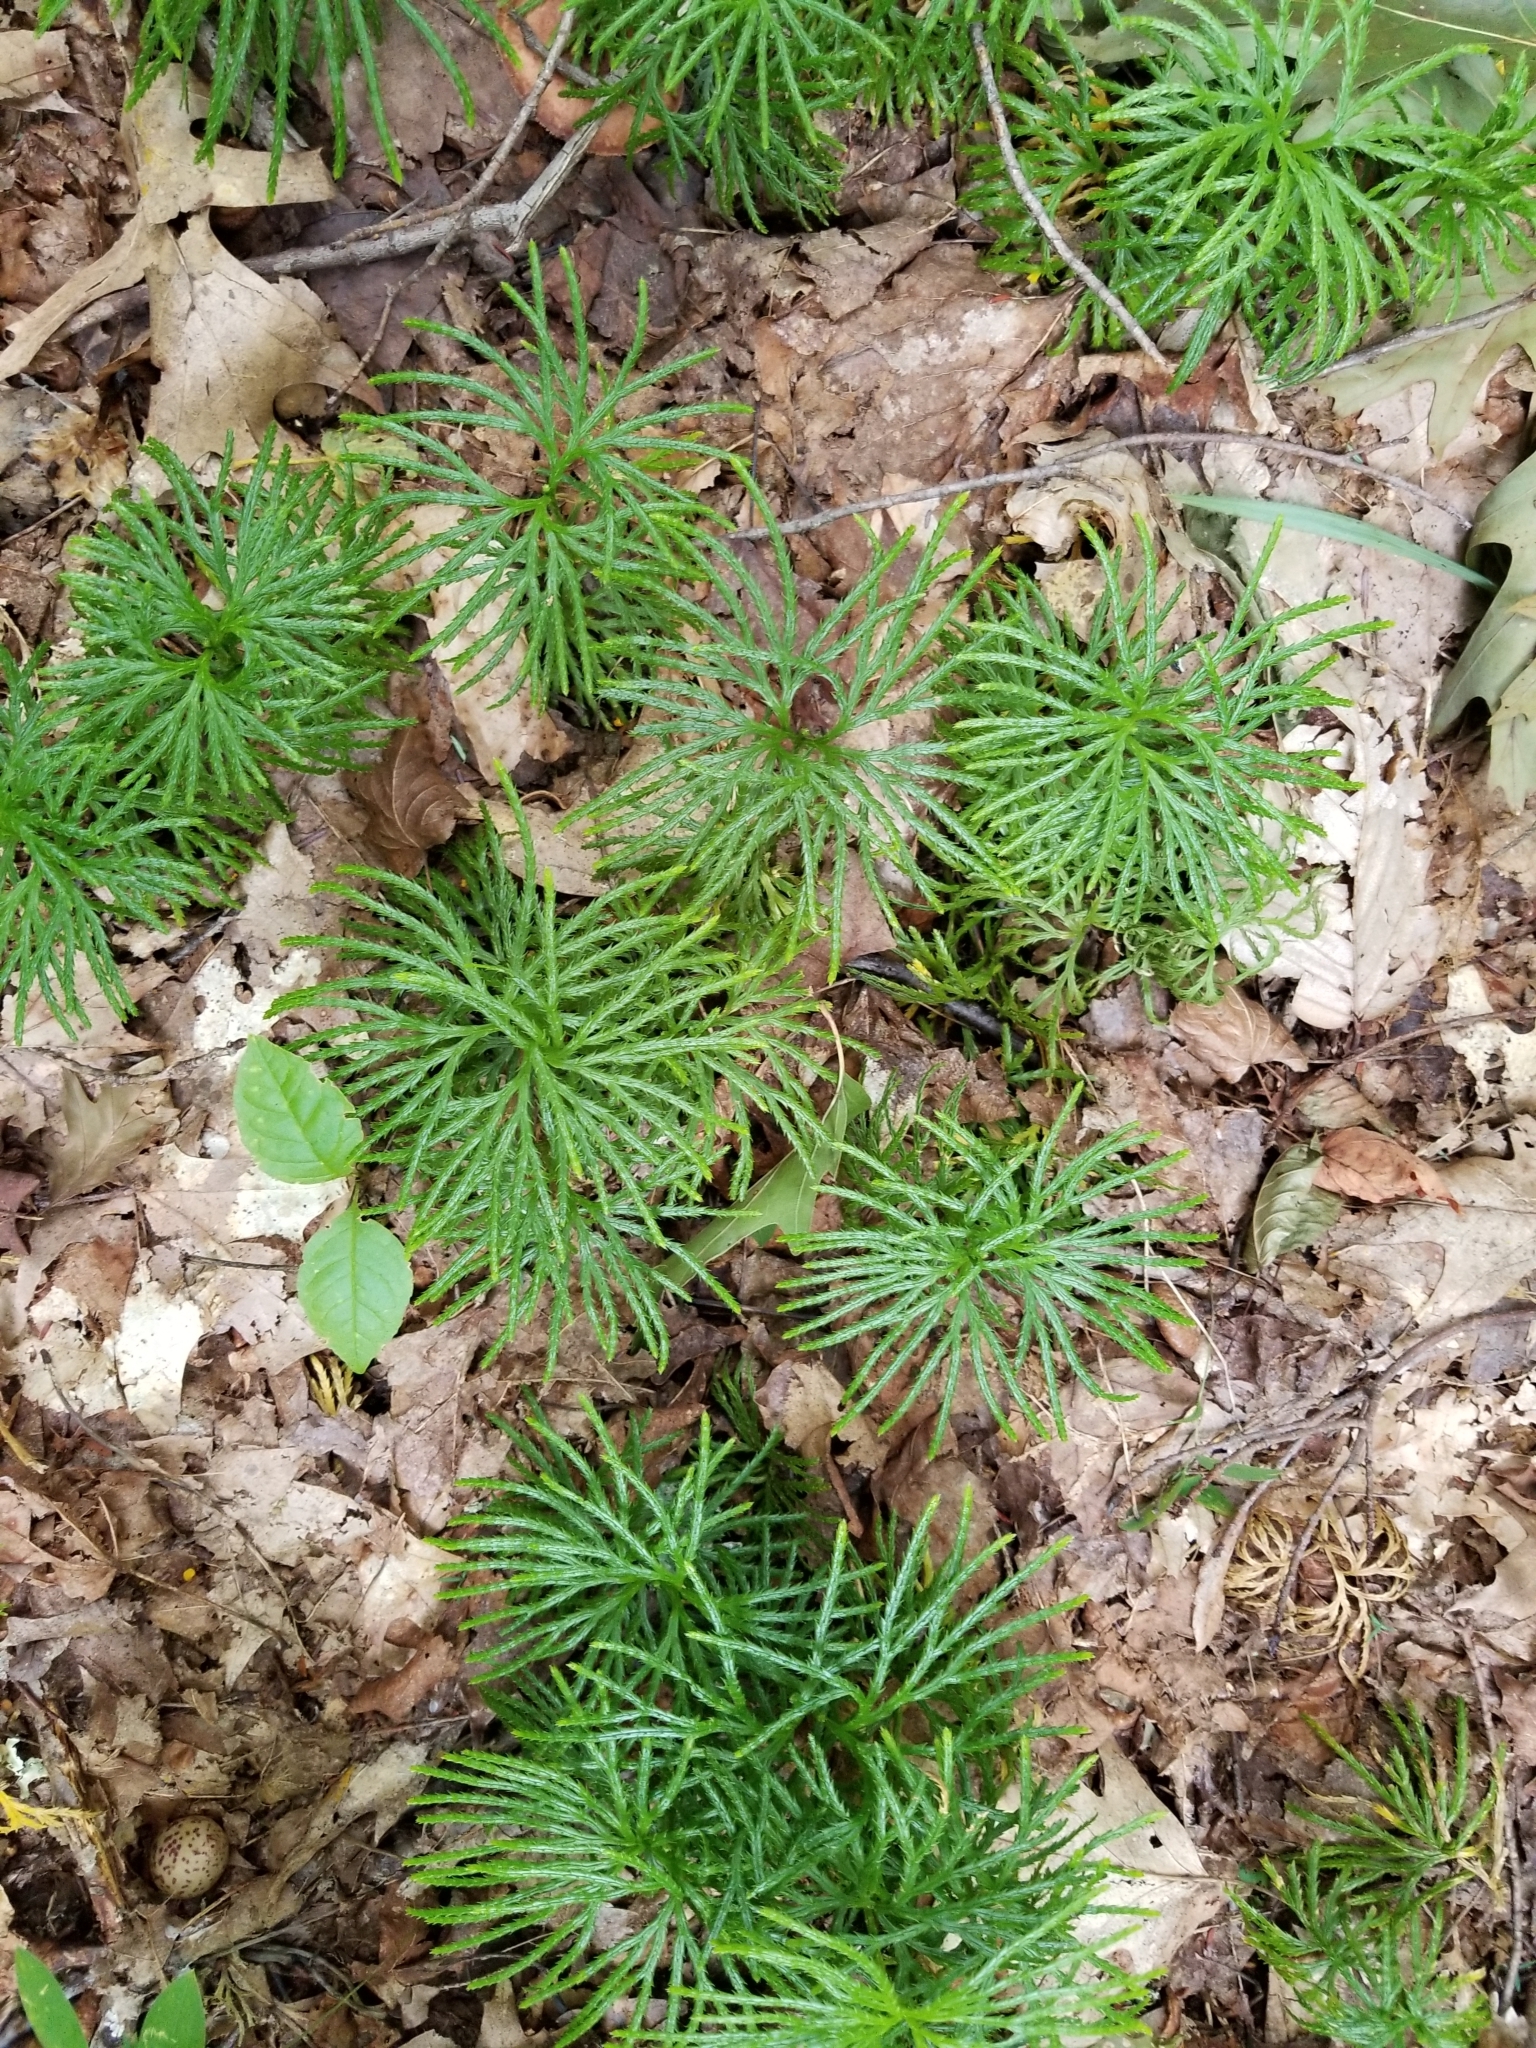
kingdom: Plantae
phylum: Tracheophyta
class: Lycopodiopsida
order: Lycopodiales
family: Lycopodiaceae
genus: Diphasiastrum
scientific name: Diphasiastrum digitatum
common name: Southern running-pine
